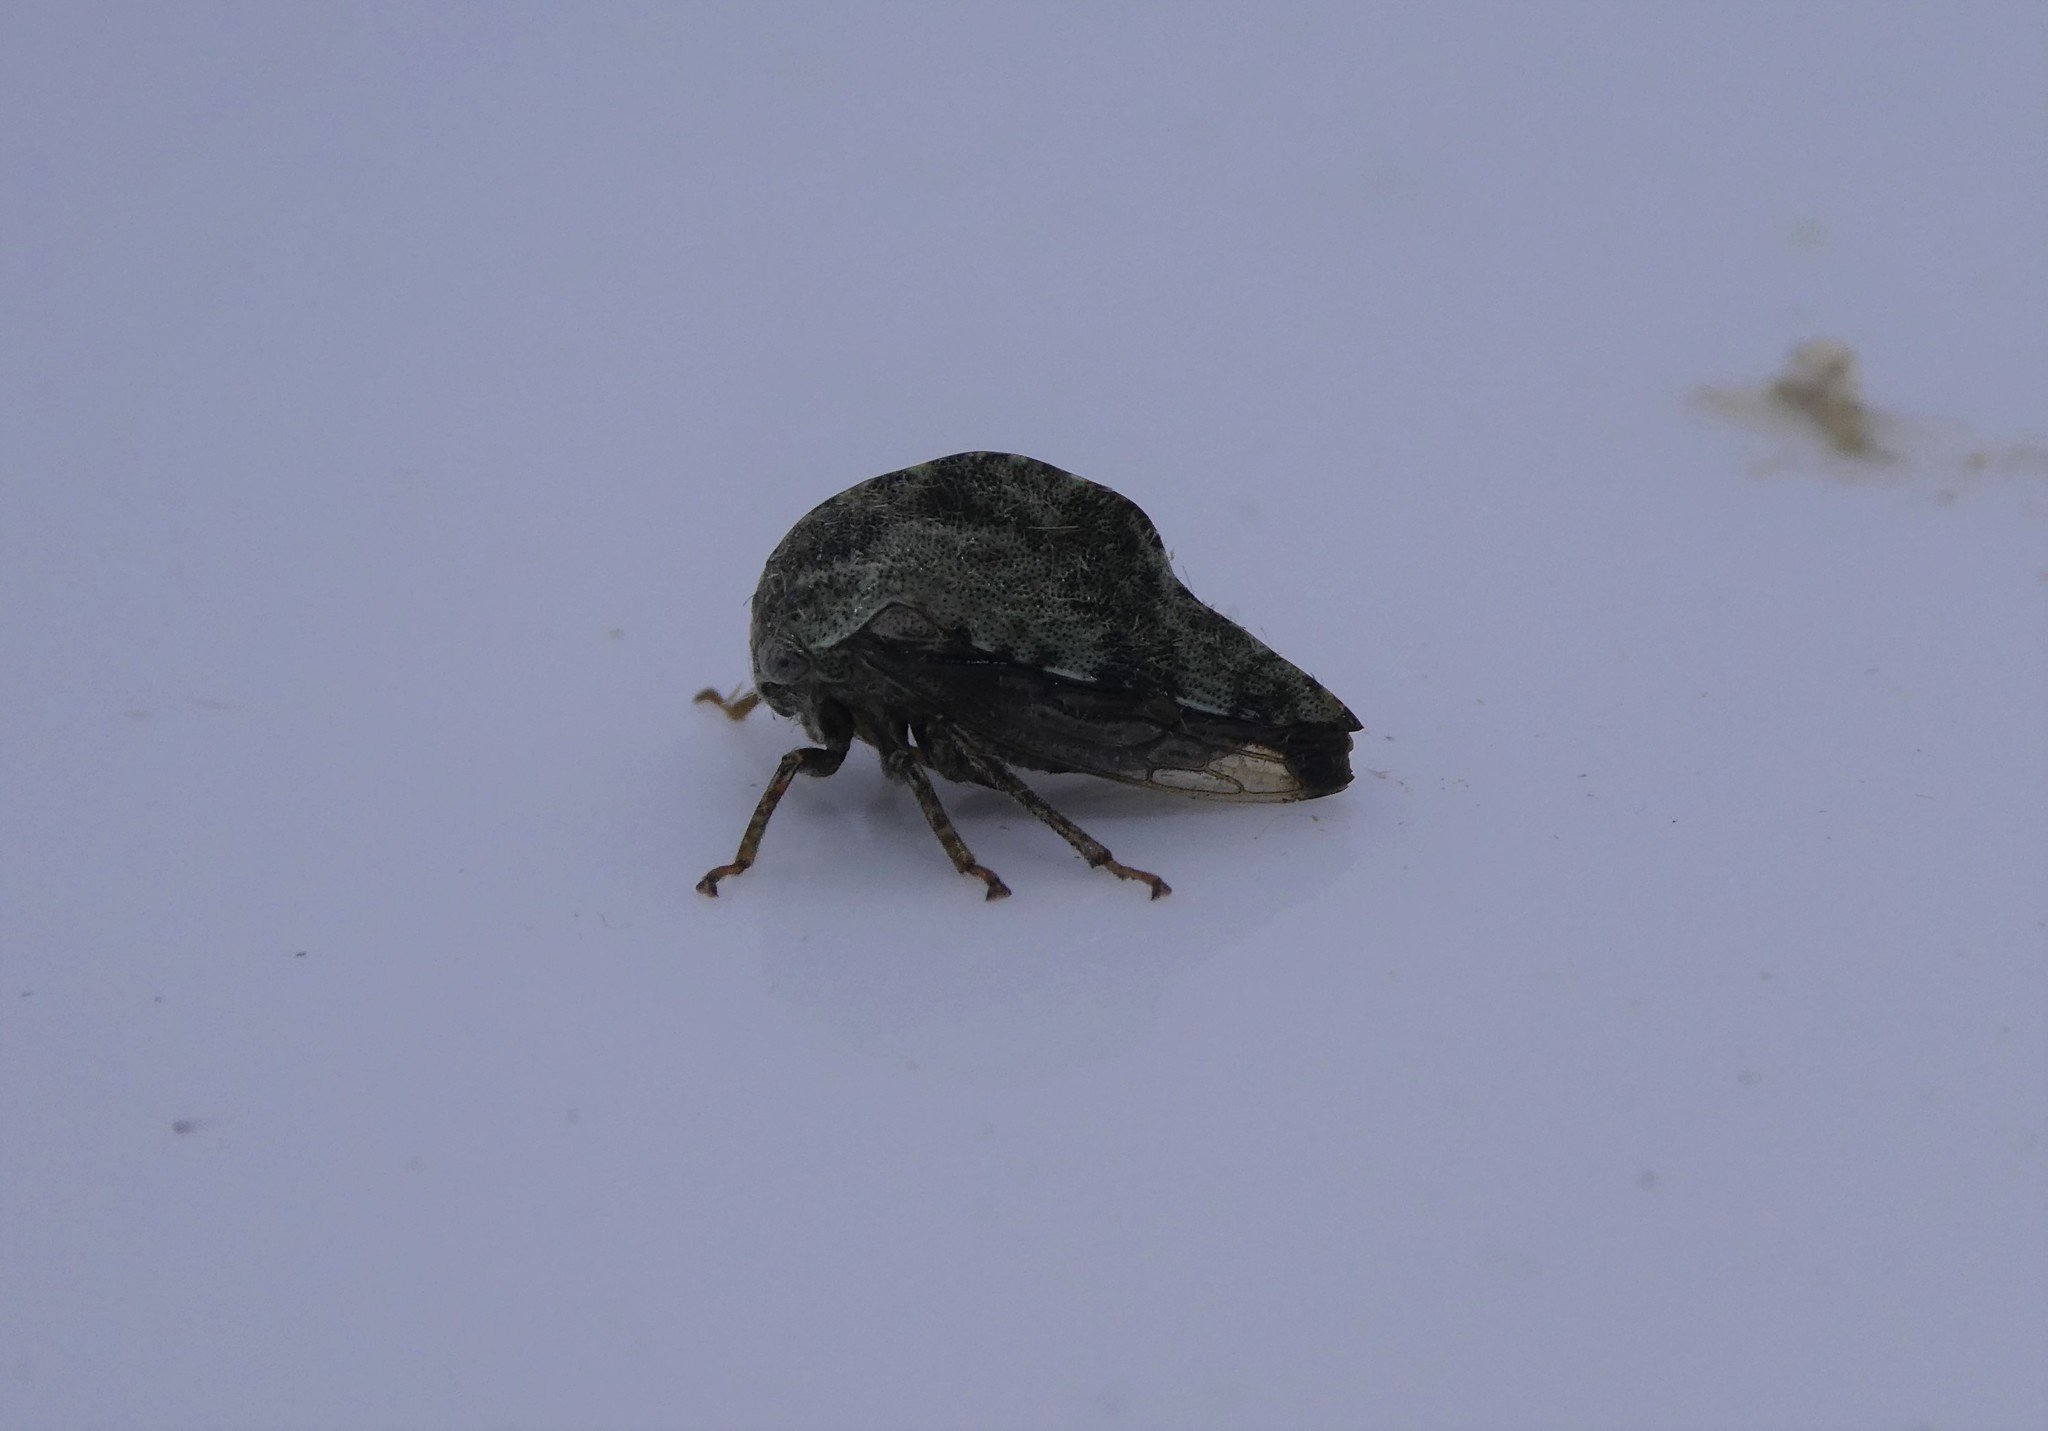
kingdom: Animalia
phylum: Arthropoda
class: Insecta
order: Hemiptera
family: Membracidae
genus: Telamona
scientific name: Telamona reclivata
